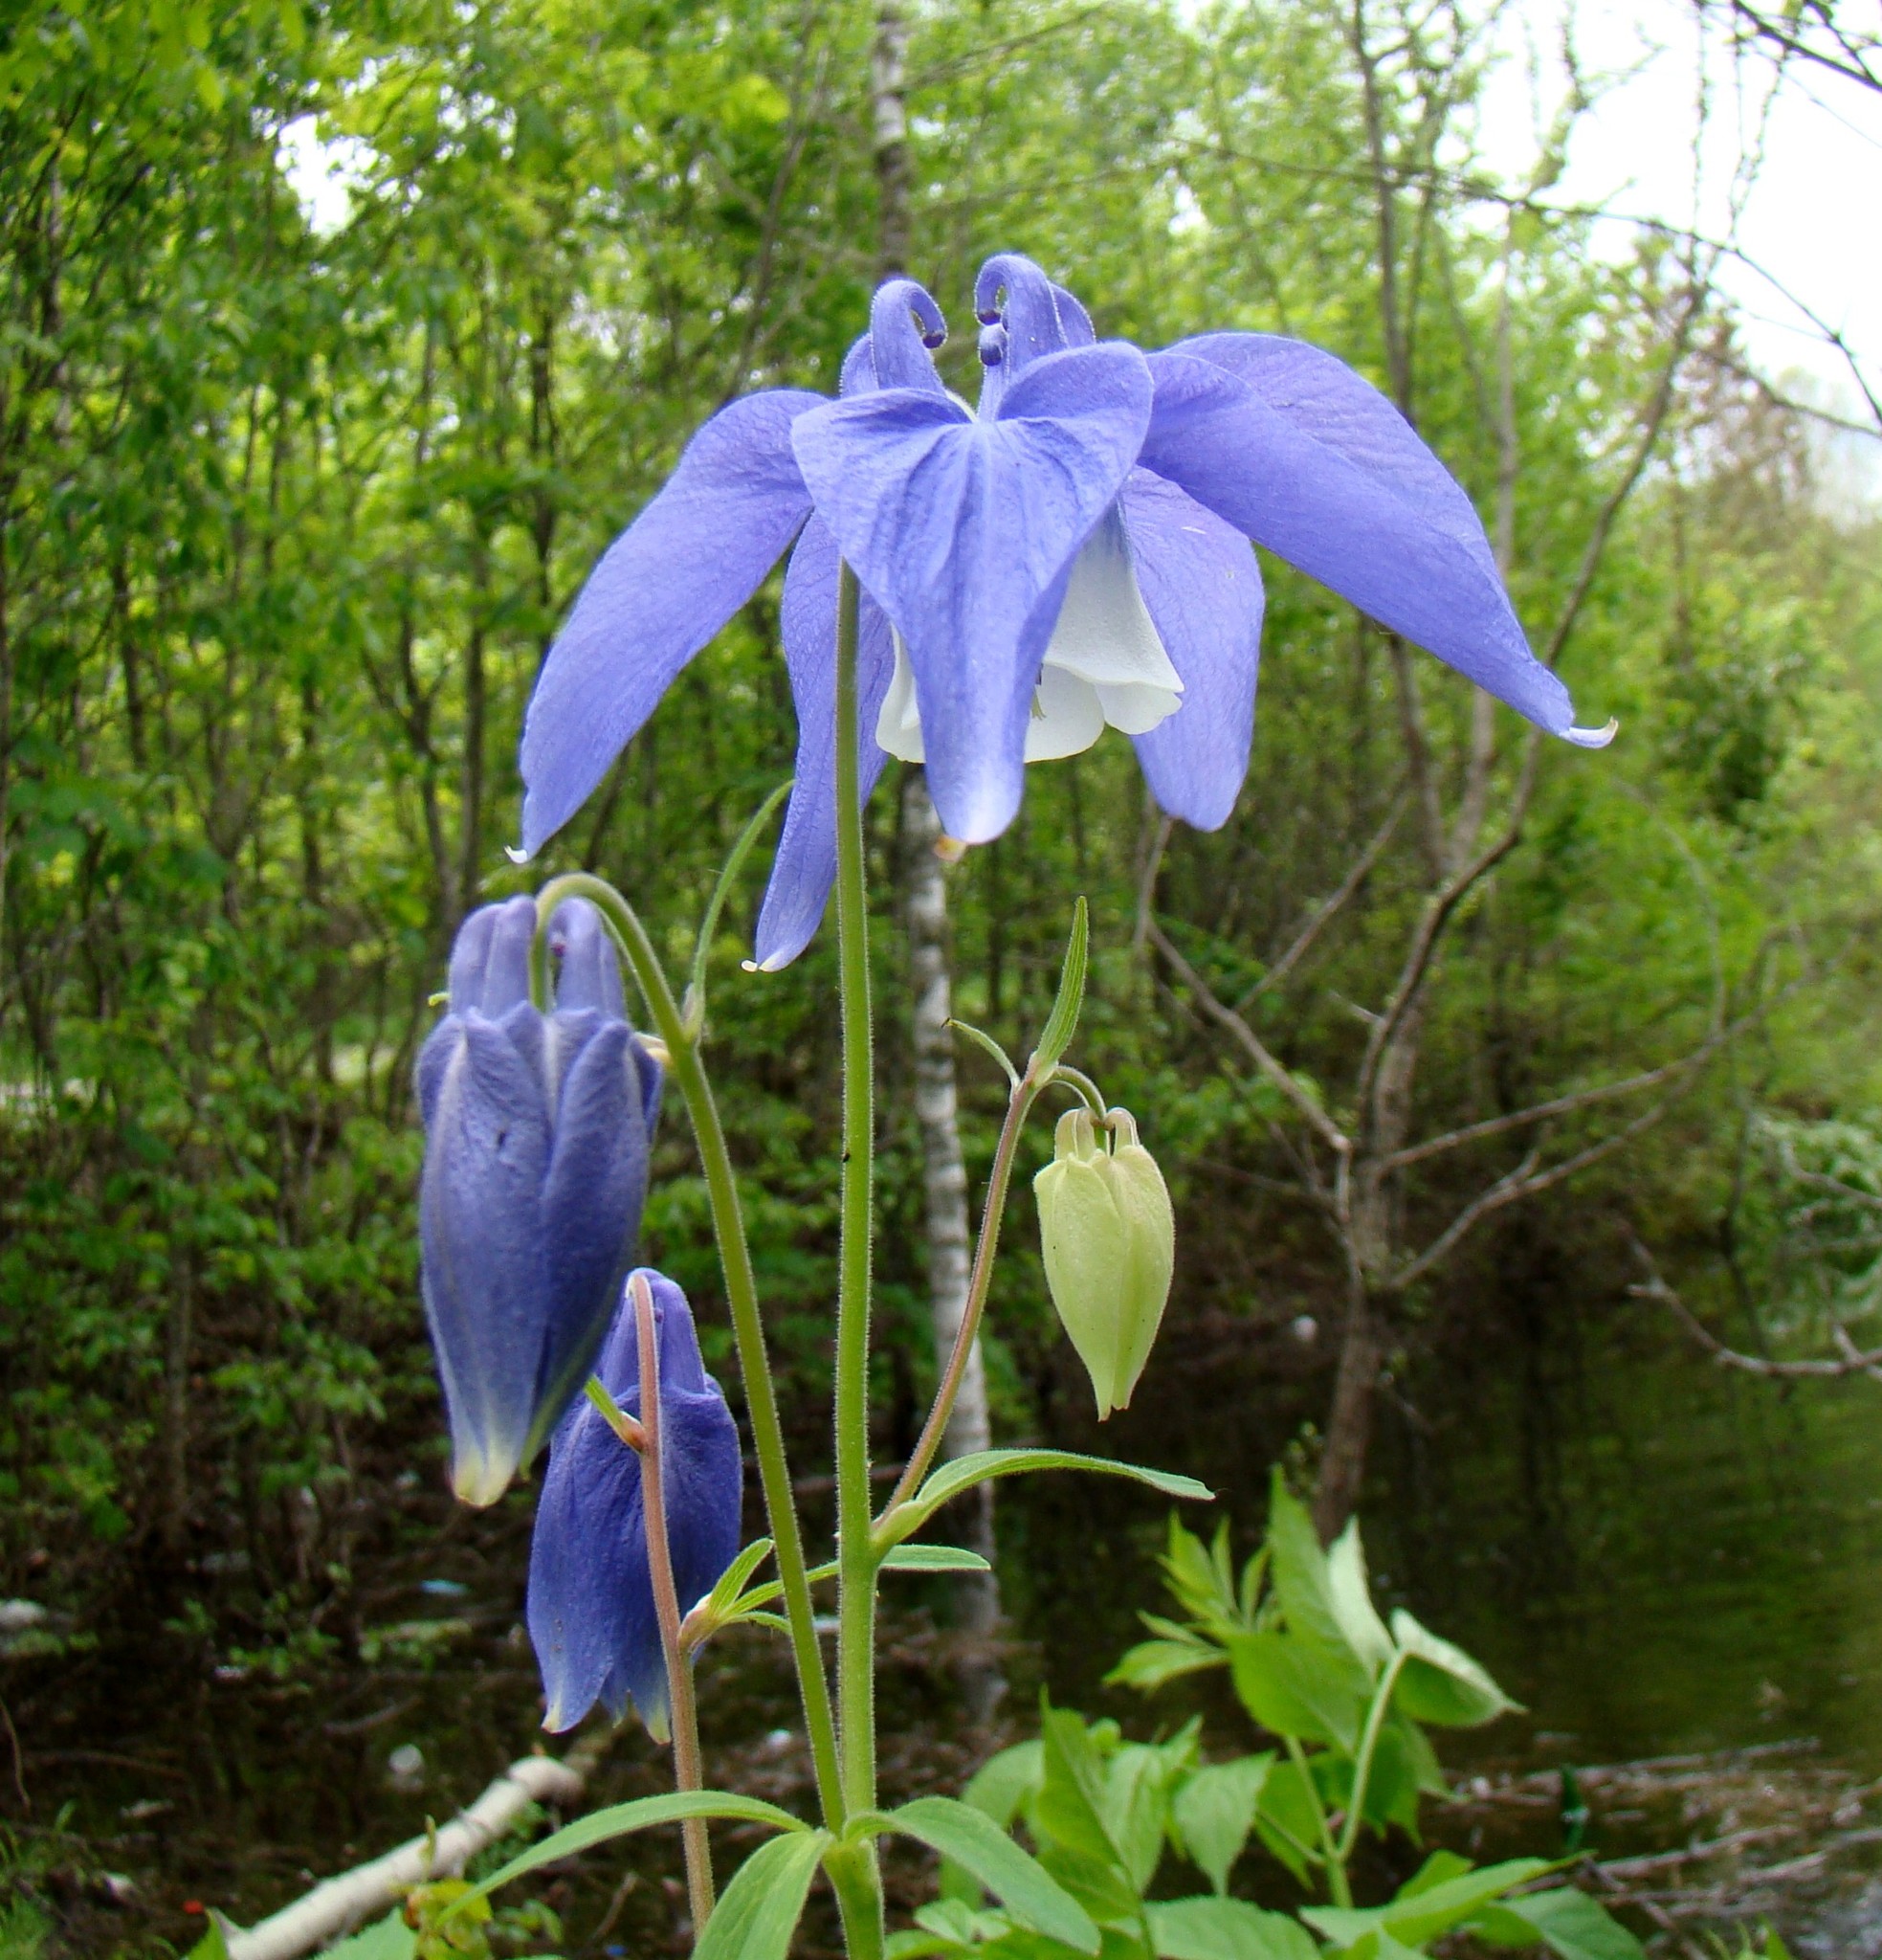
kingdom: Plantae
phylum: Tracheophyta
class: Magnoliopsida
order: Ranunculales
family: Ranunculaceae
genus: Aquilegia
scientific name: Aquilegia olympica
